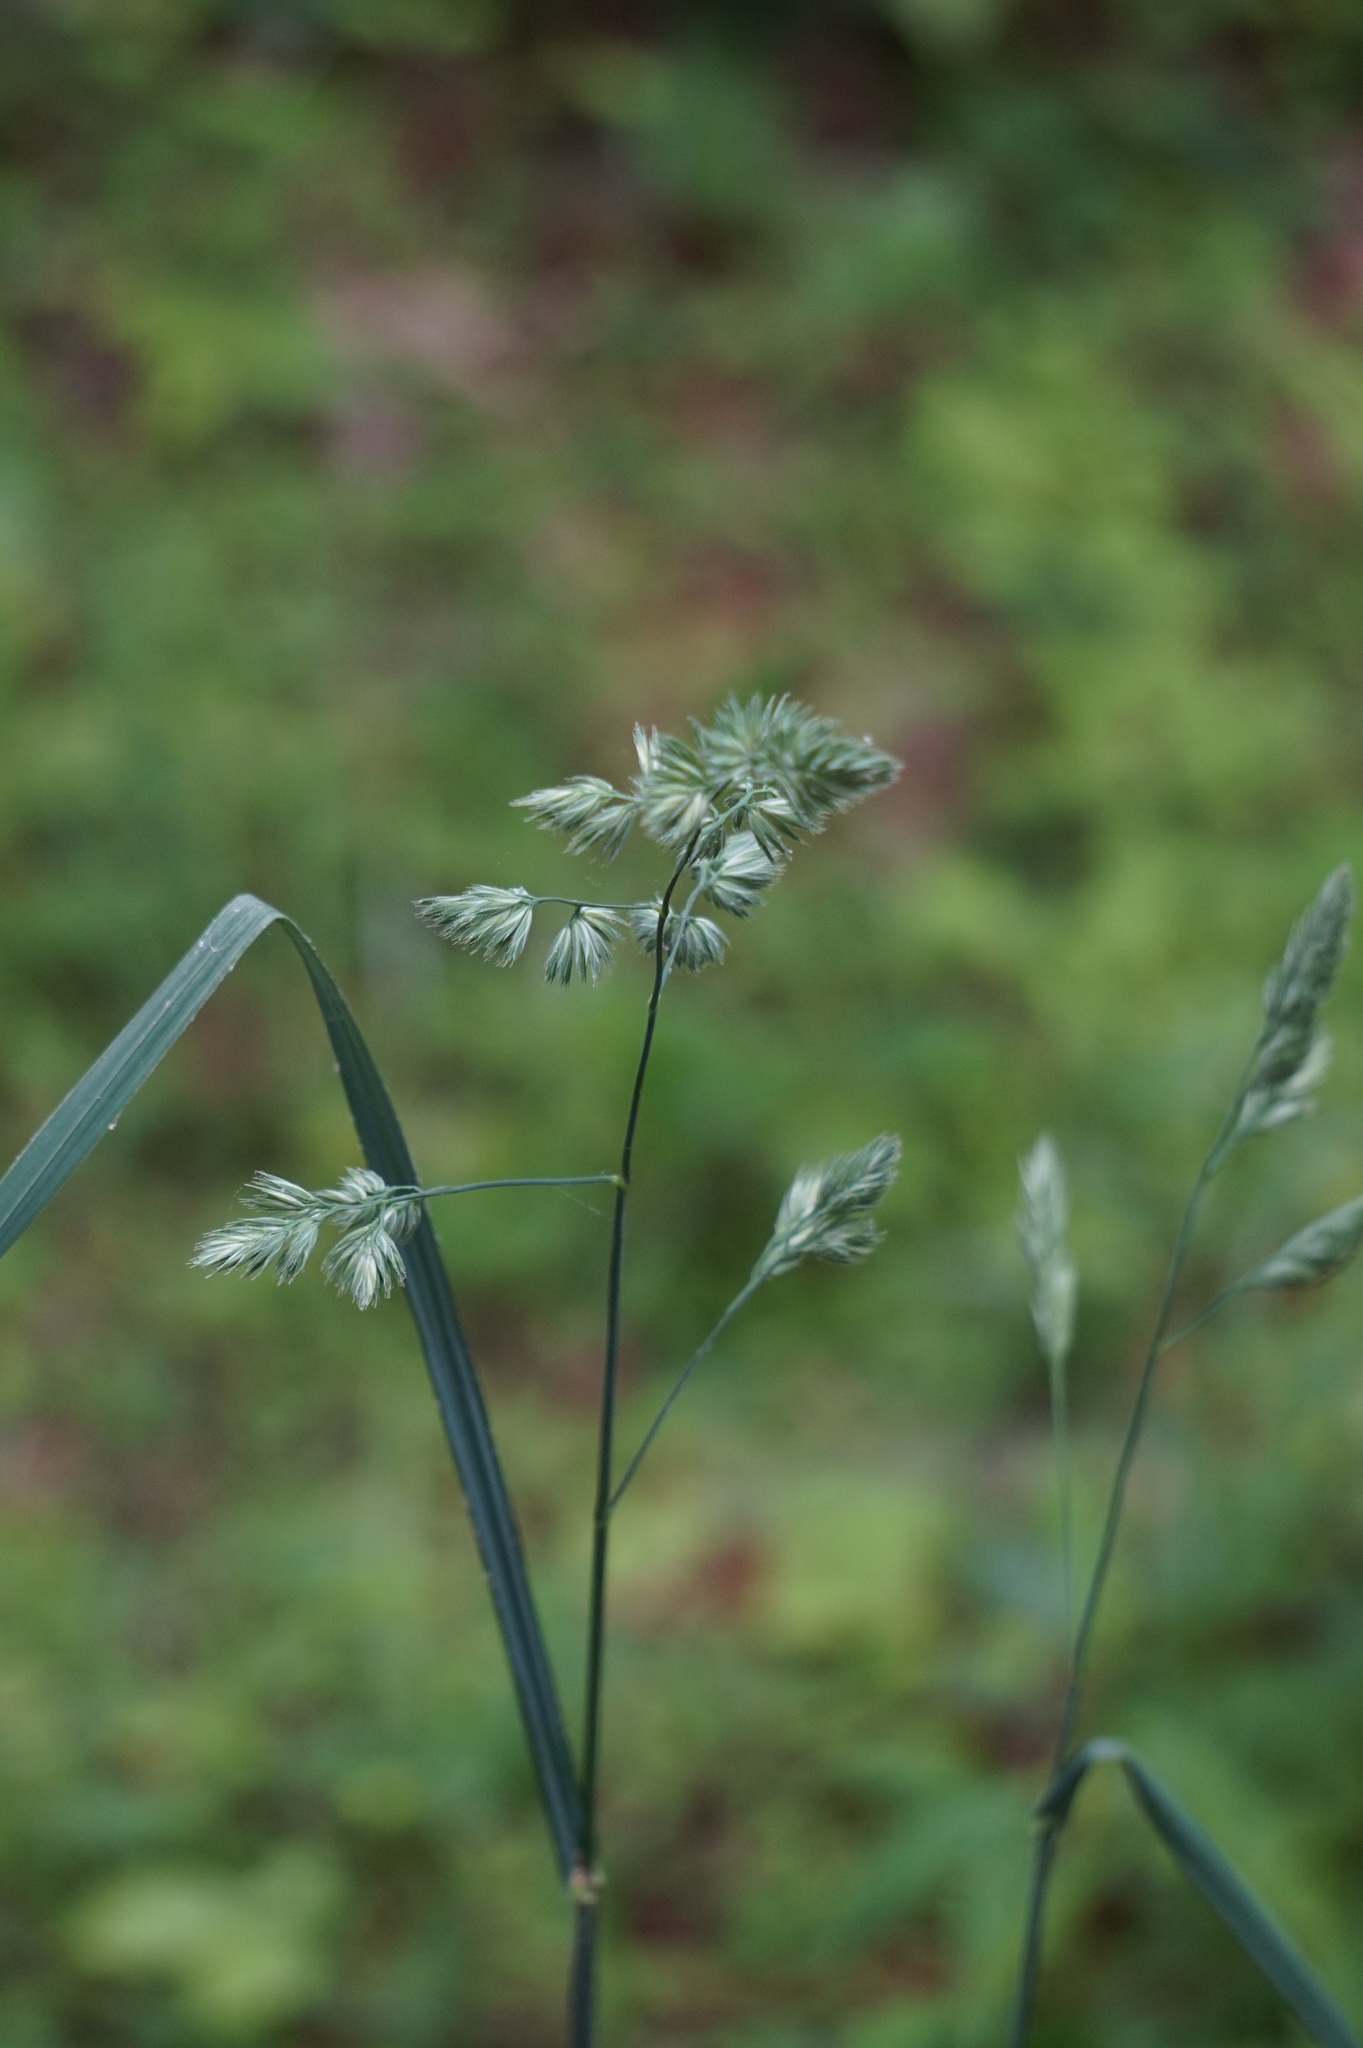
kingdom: Plantae
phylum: Tracheophyta
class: Liliopsida
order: Poales
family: Poaceae
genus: Dactylis
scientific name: Dactylis glomerata
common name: Orchardgrass
